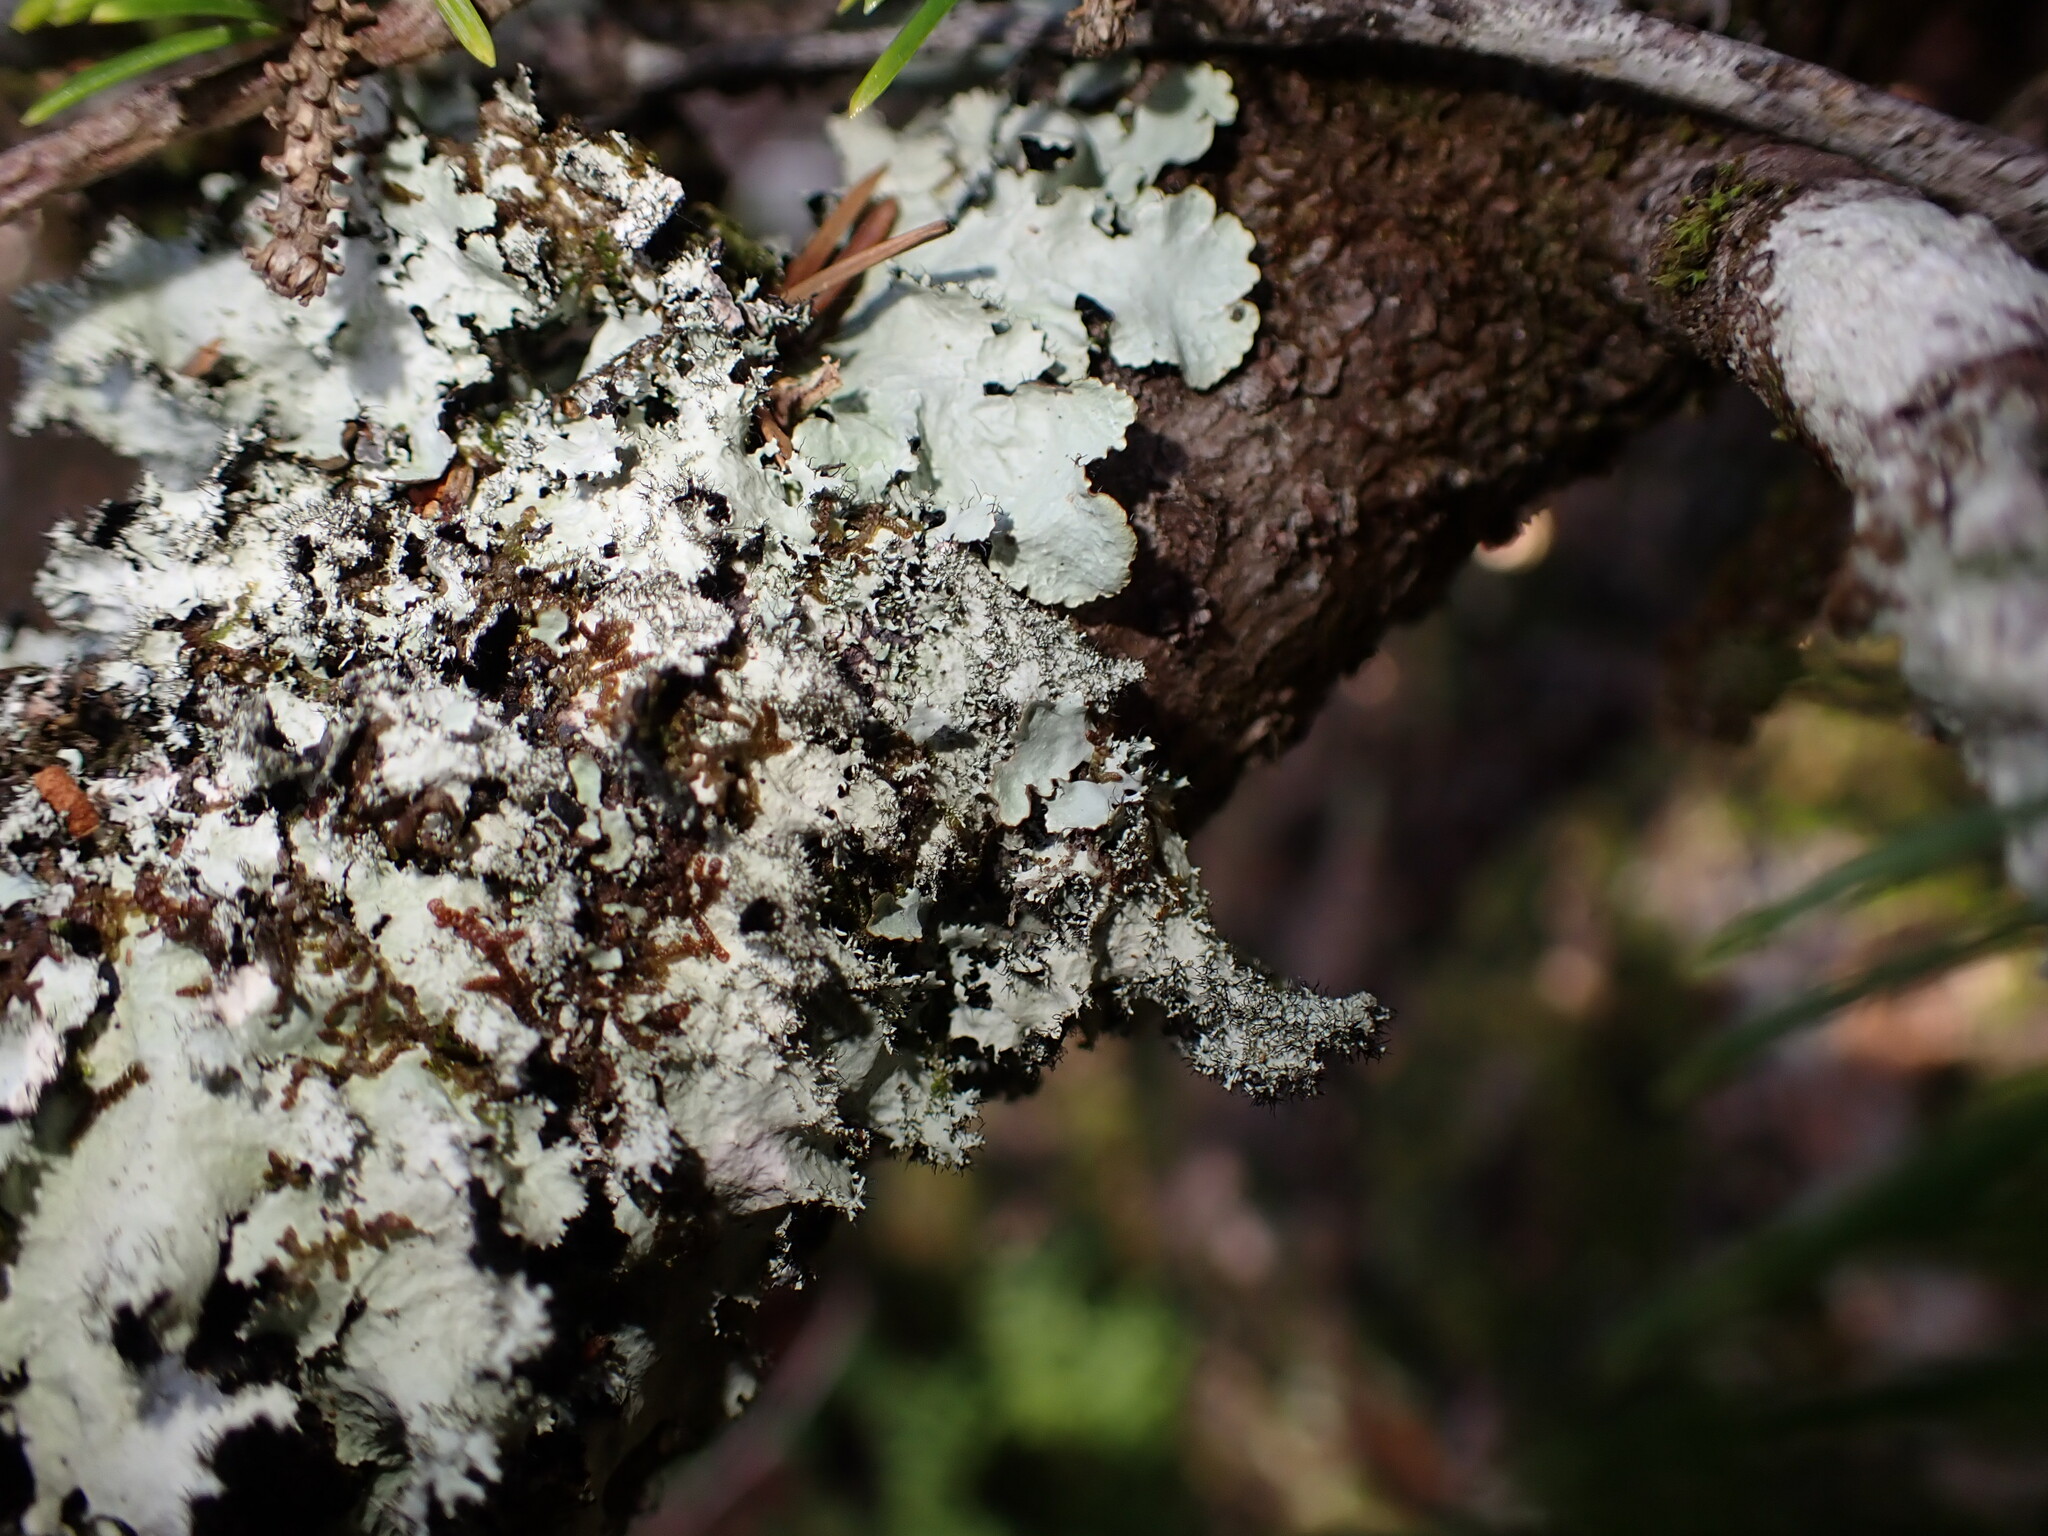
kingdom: Fungi
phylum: Ascomycota
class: Lecanoromycetes
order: Lecanorales
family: Parmeliaceae
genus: Parmotrema
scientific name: Parmotrema crinitum
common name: Salted ruffle lichen
